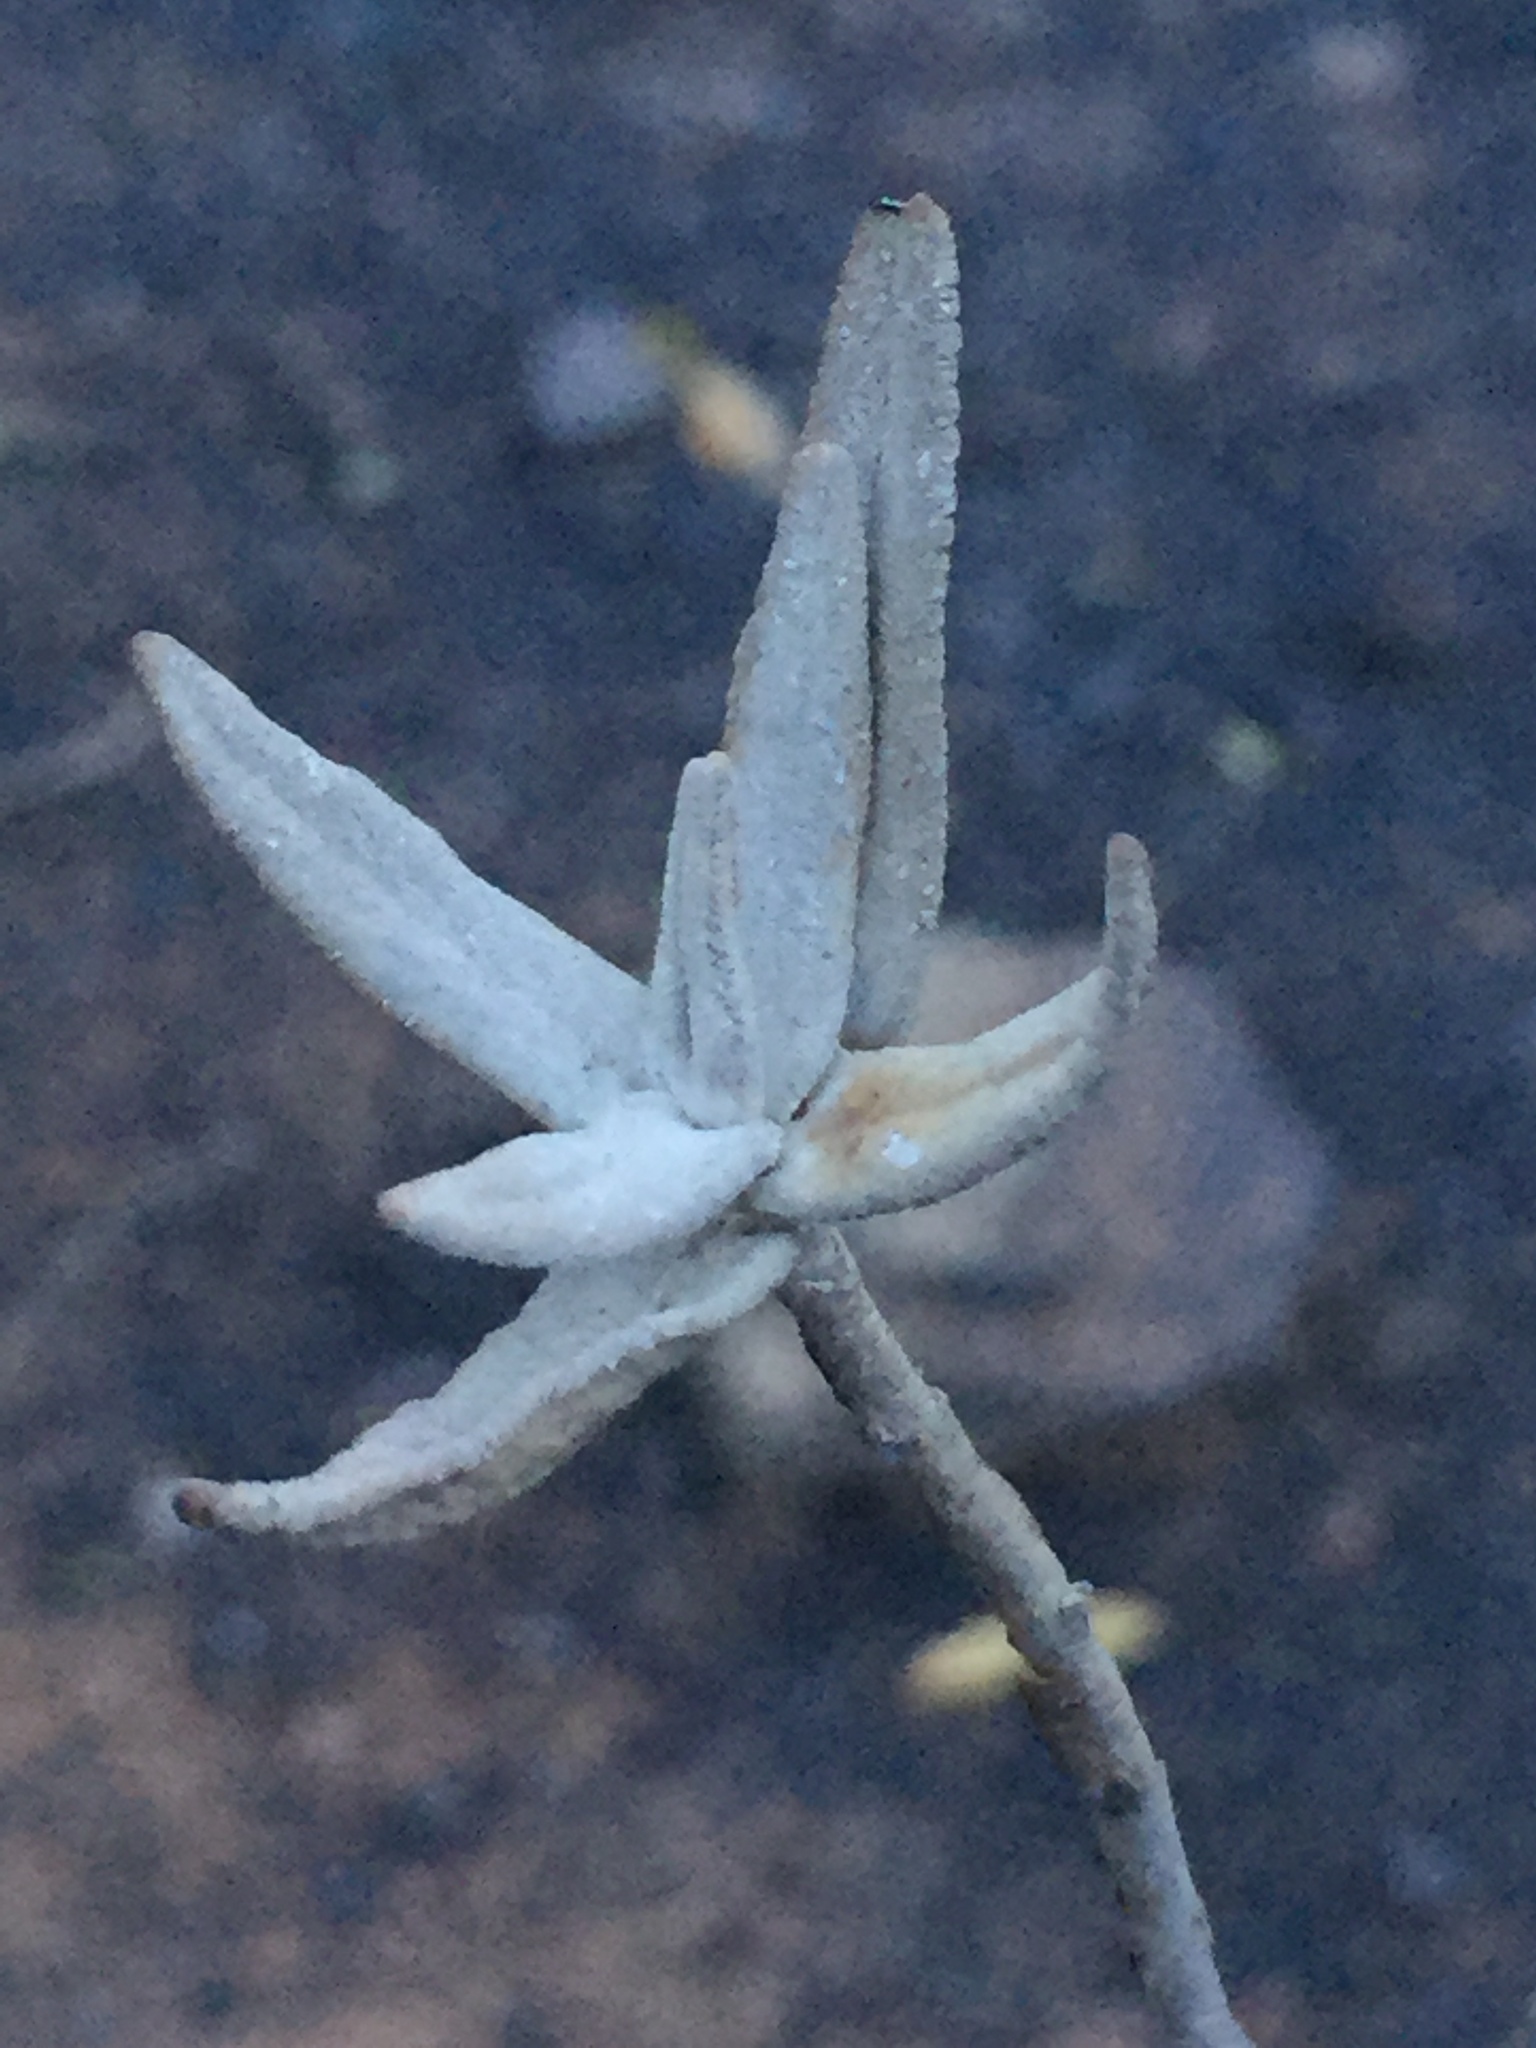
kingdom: Plantae
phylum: Tracheophyta
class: Magnoliopsida
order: Lamiales
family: Lamiaceae
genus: Salvia
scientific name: Salvia leucophylla
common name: Purple sage
